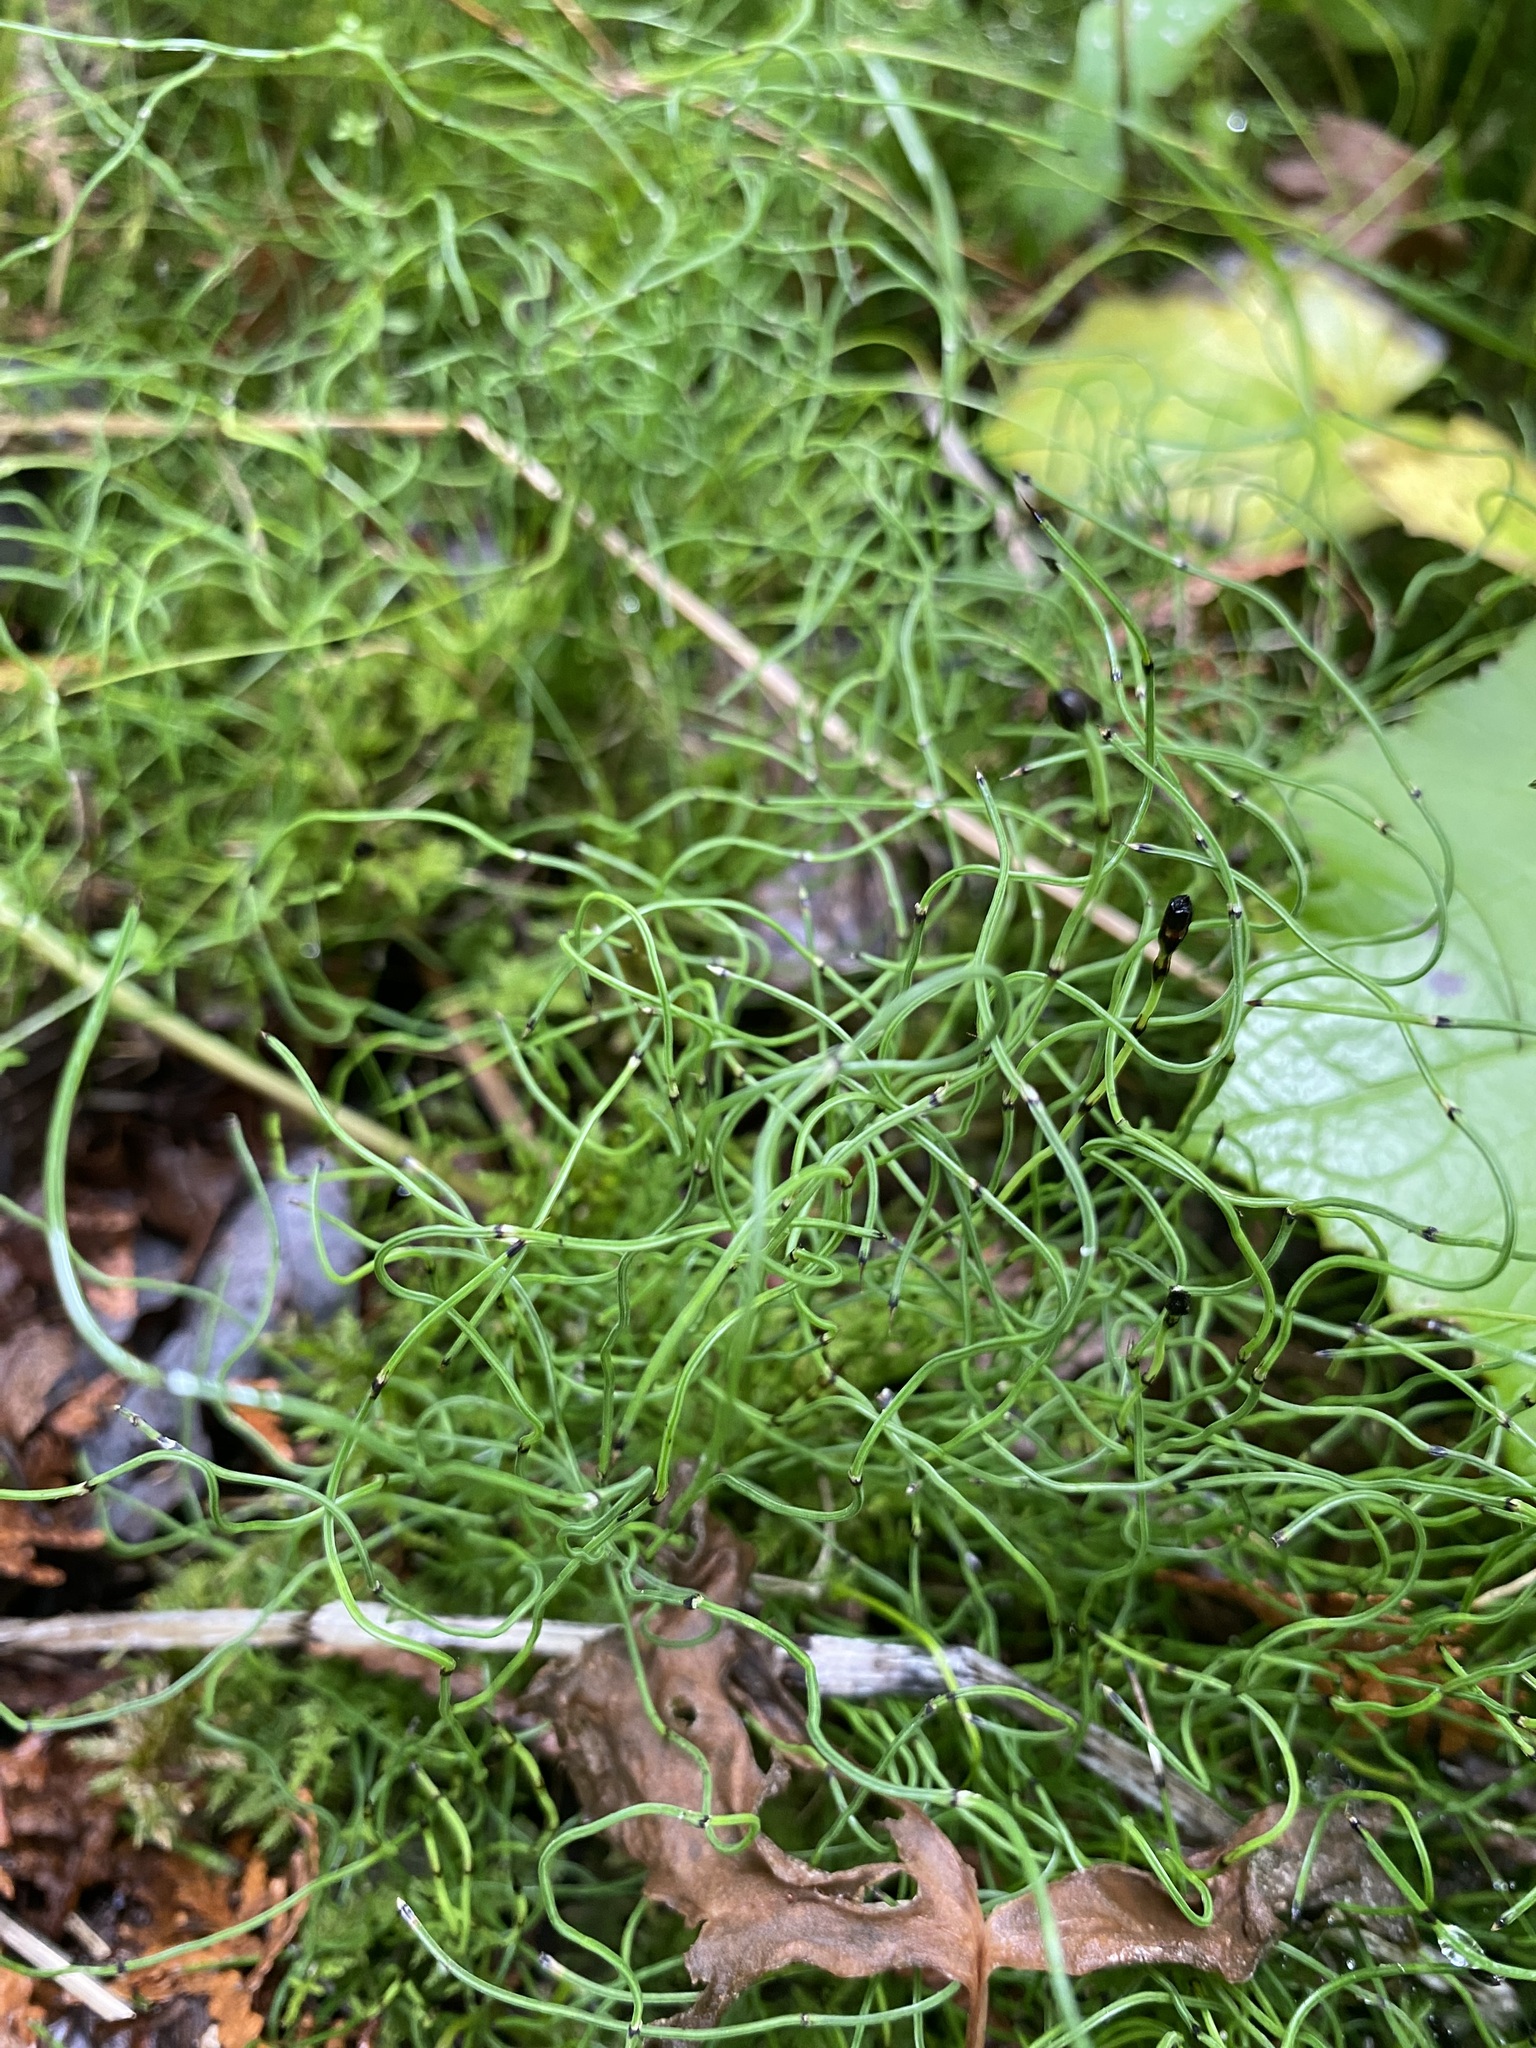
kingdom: Plantae
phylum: Tracheophyta
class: Polypodiopsida
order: Equisetales
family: Equisetaceae
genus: Equisetum
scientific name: Equisetum scirpoides
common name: Delicate horsetail
